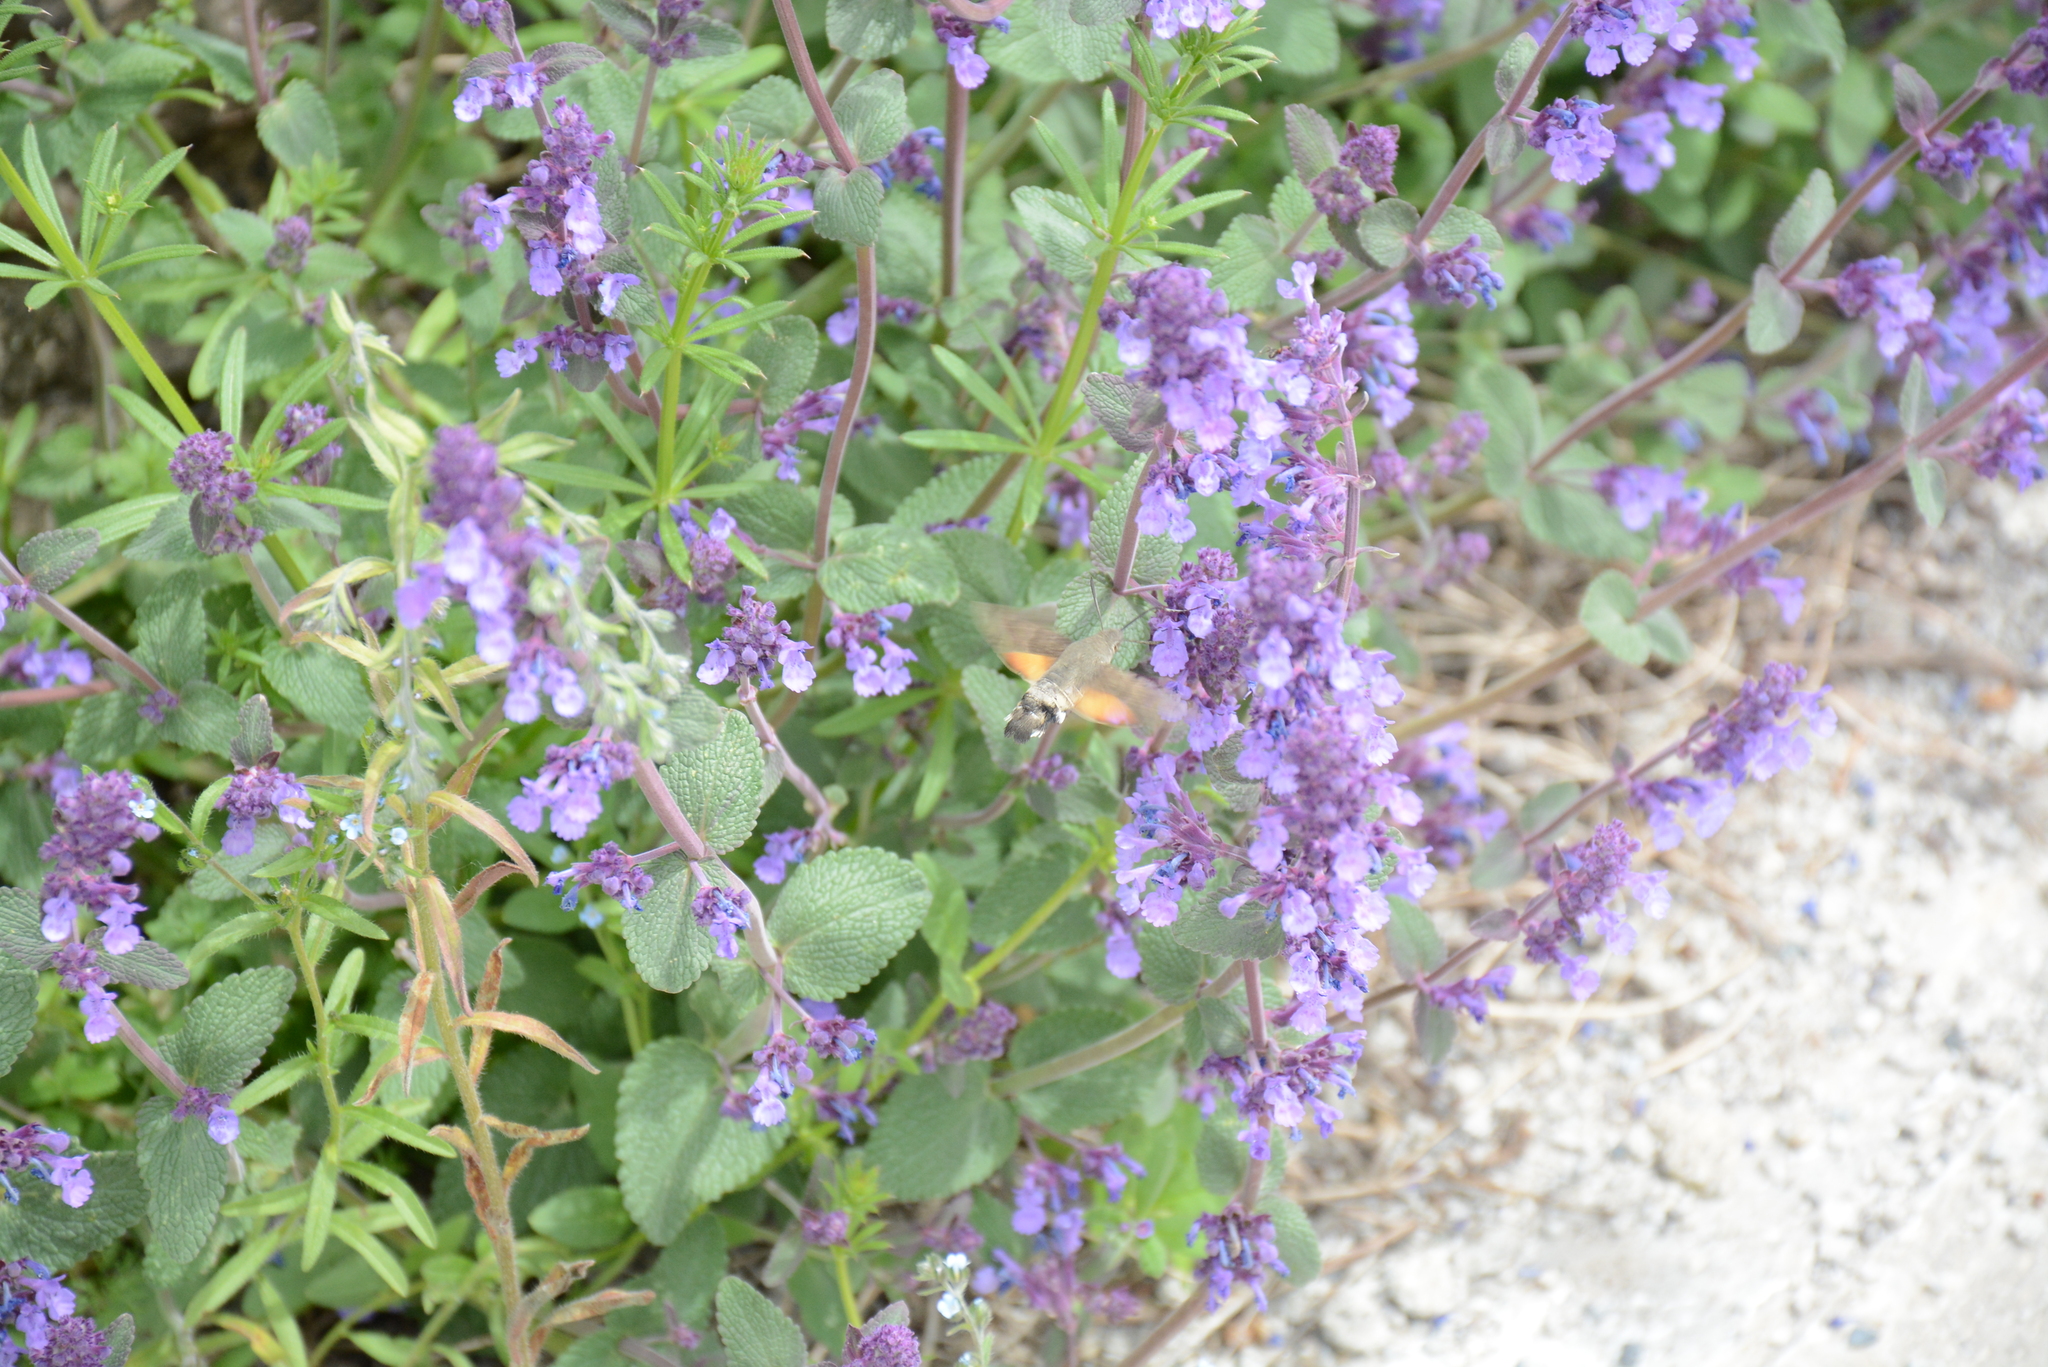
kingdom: Animalia
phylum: Arthropoda
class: Insecta
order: Lepidoptera
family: Sphingidae
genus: Macroglossum
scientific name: Macroglossum stellatarum
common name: Humming-bird hawk-moth
